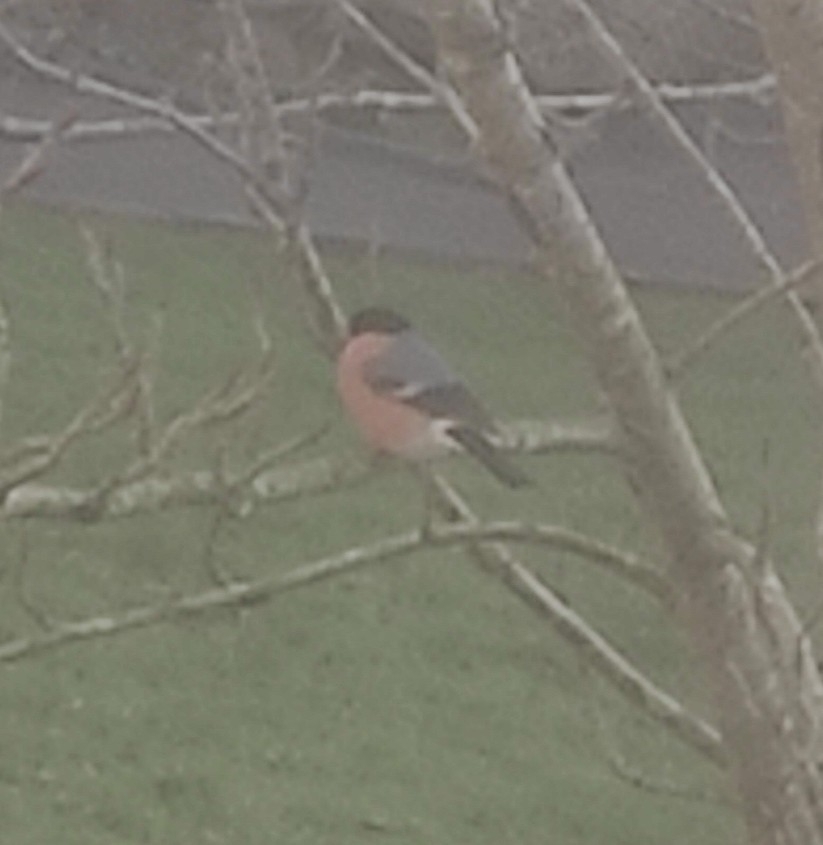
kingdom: Animalia
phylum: Chordata
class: Aves
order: Passeriformes
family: Fringillidae
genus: Pyrrhula
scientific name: Pyrrhula pyrrhula
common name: Eurasian bullfinch
